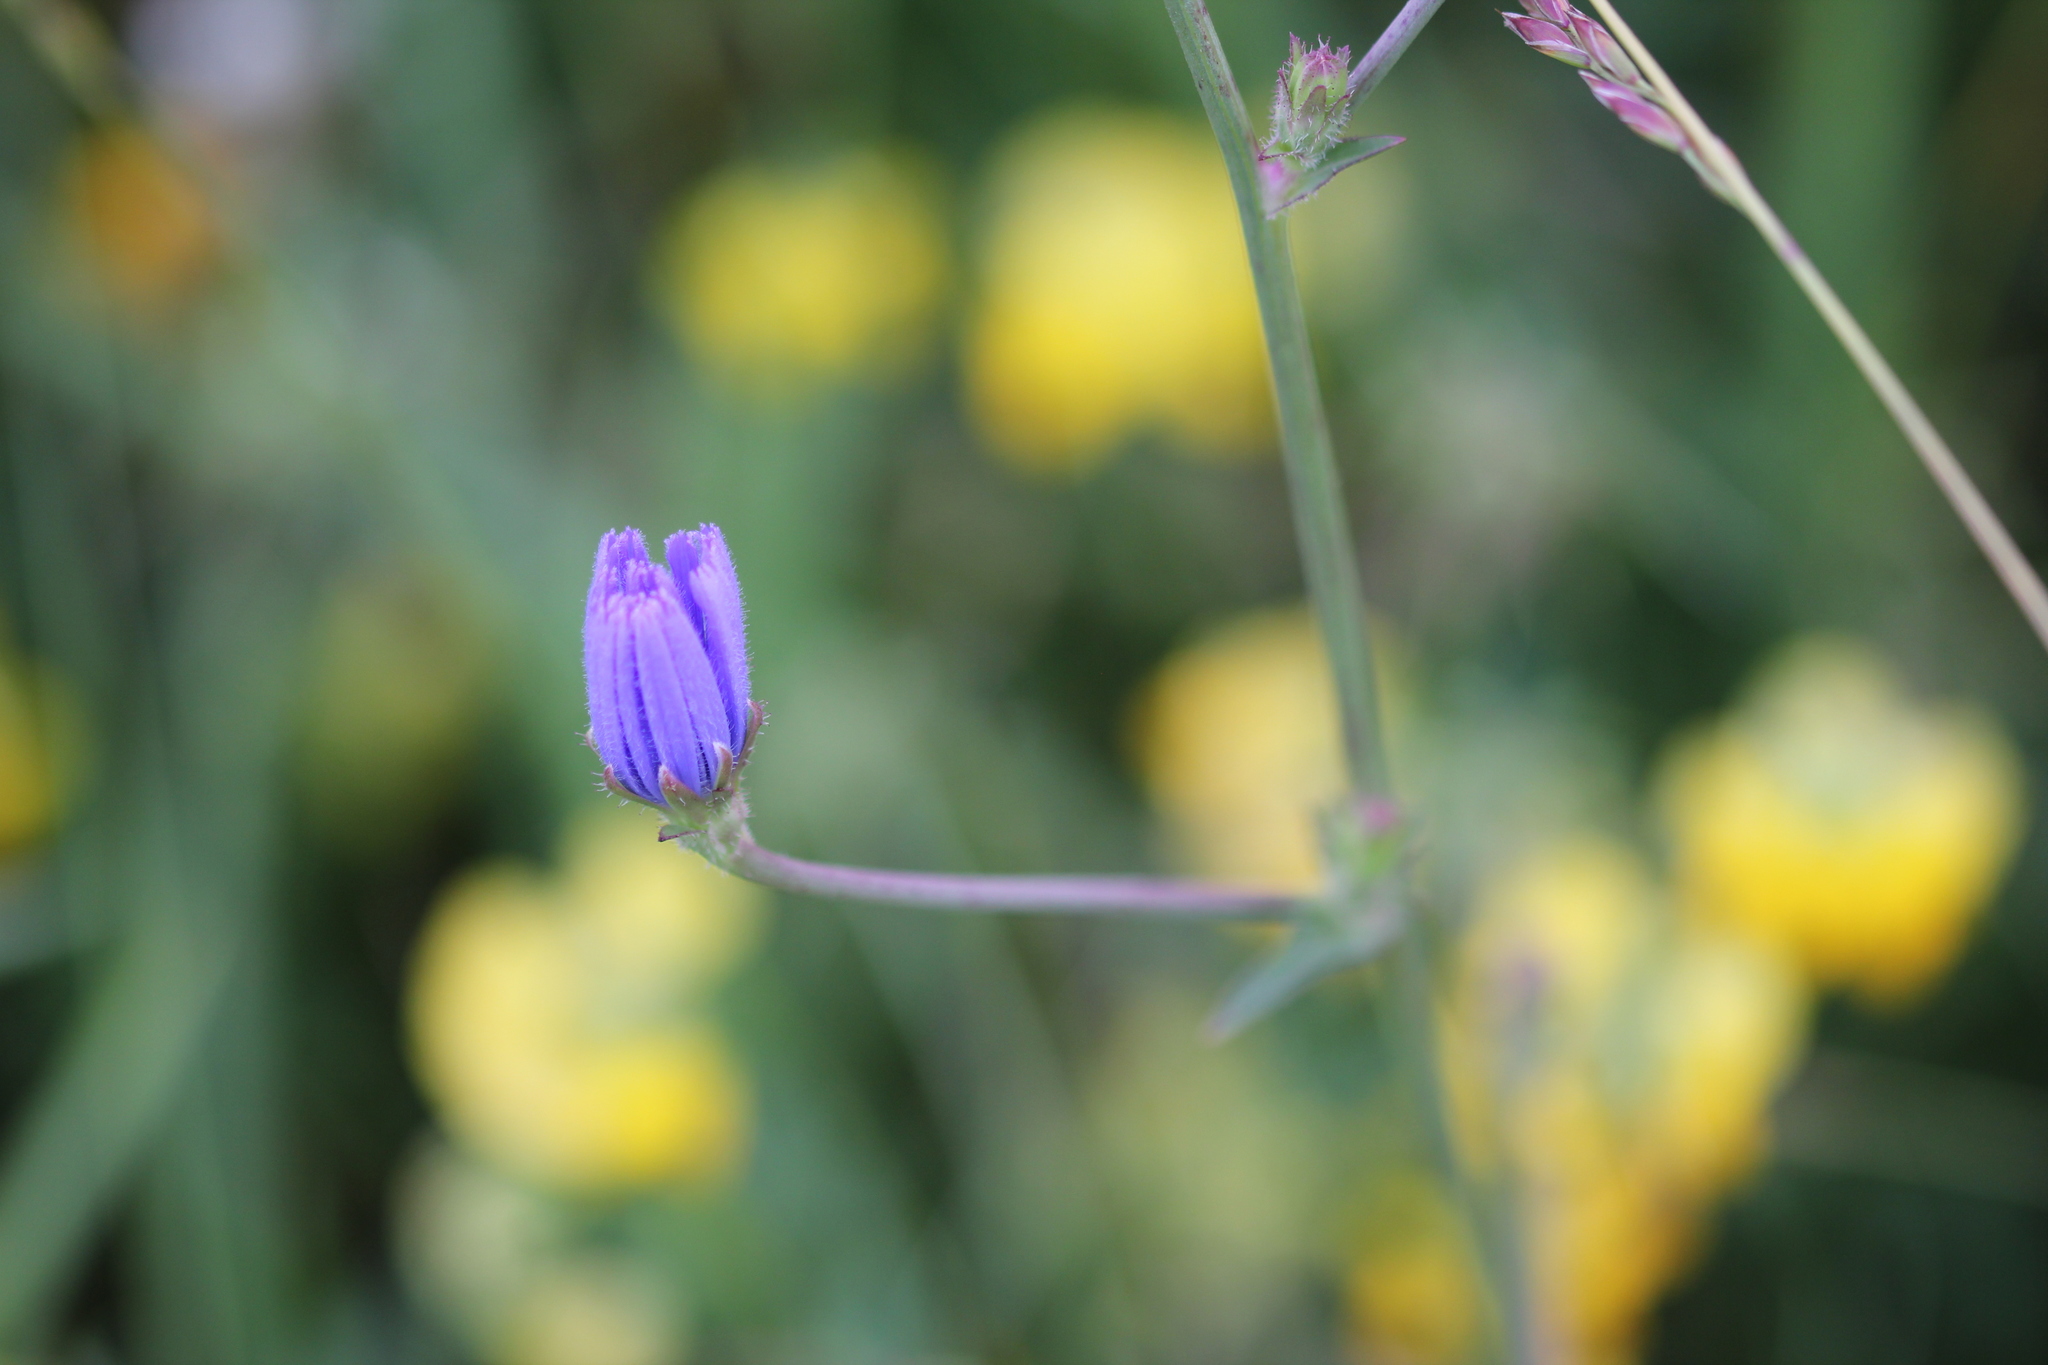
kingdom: Plantae
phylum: Tracheophyta
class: Magnoliopsida
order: Asterales
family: Asteraceae
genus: Cichorium
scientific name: Cichorium intybus
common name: Chicory
